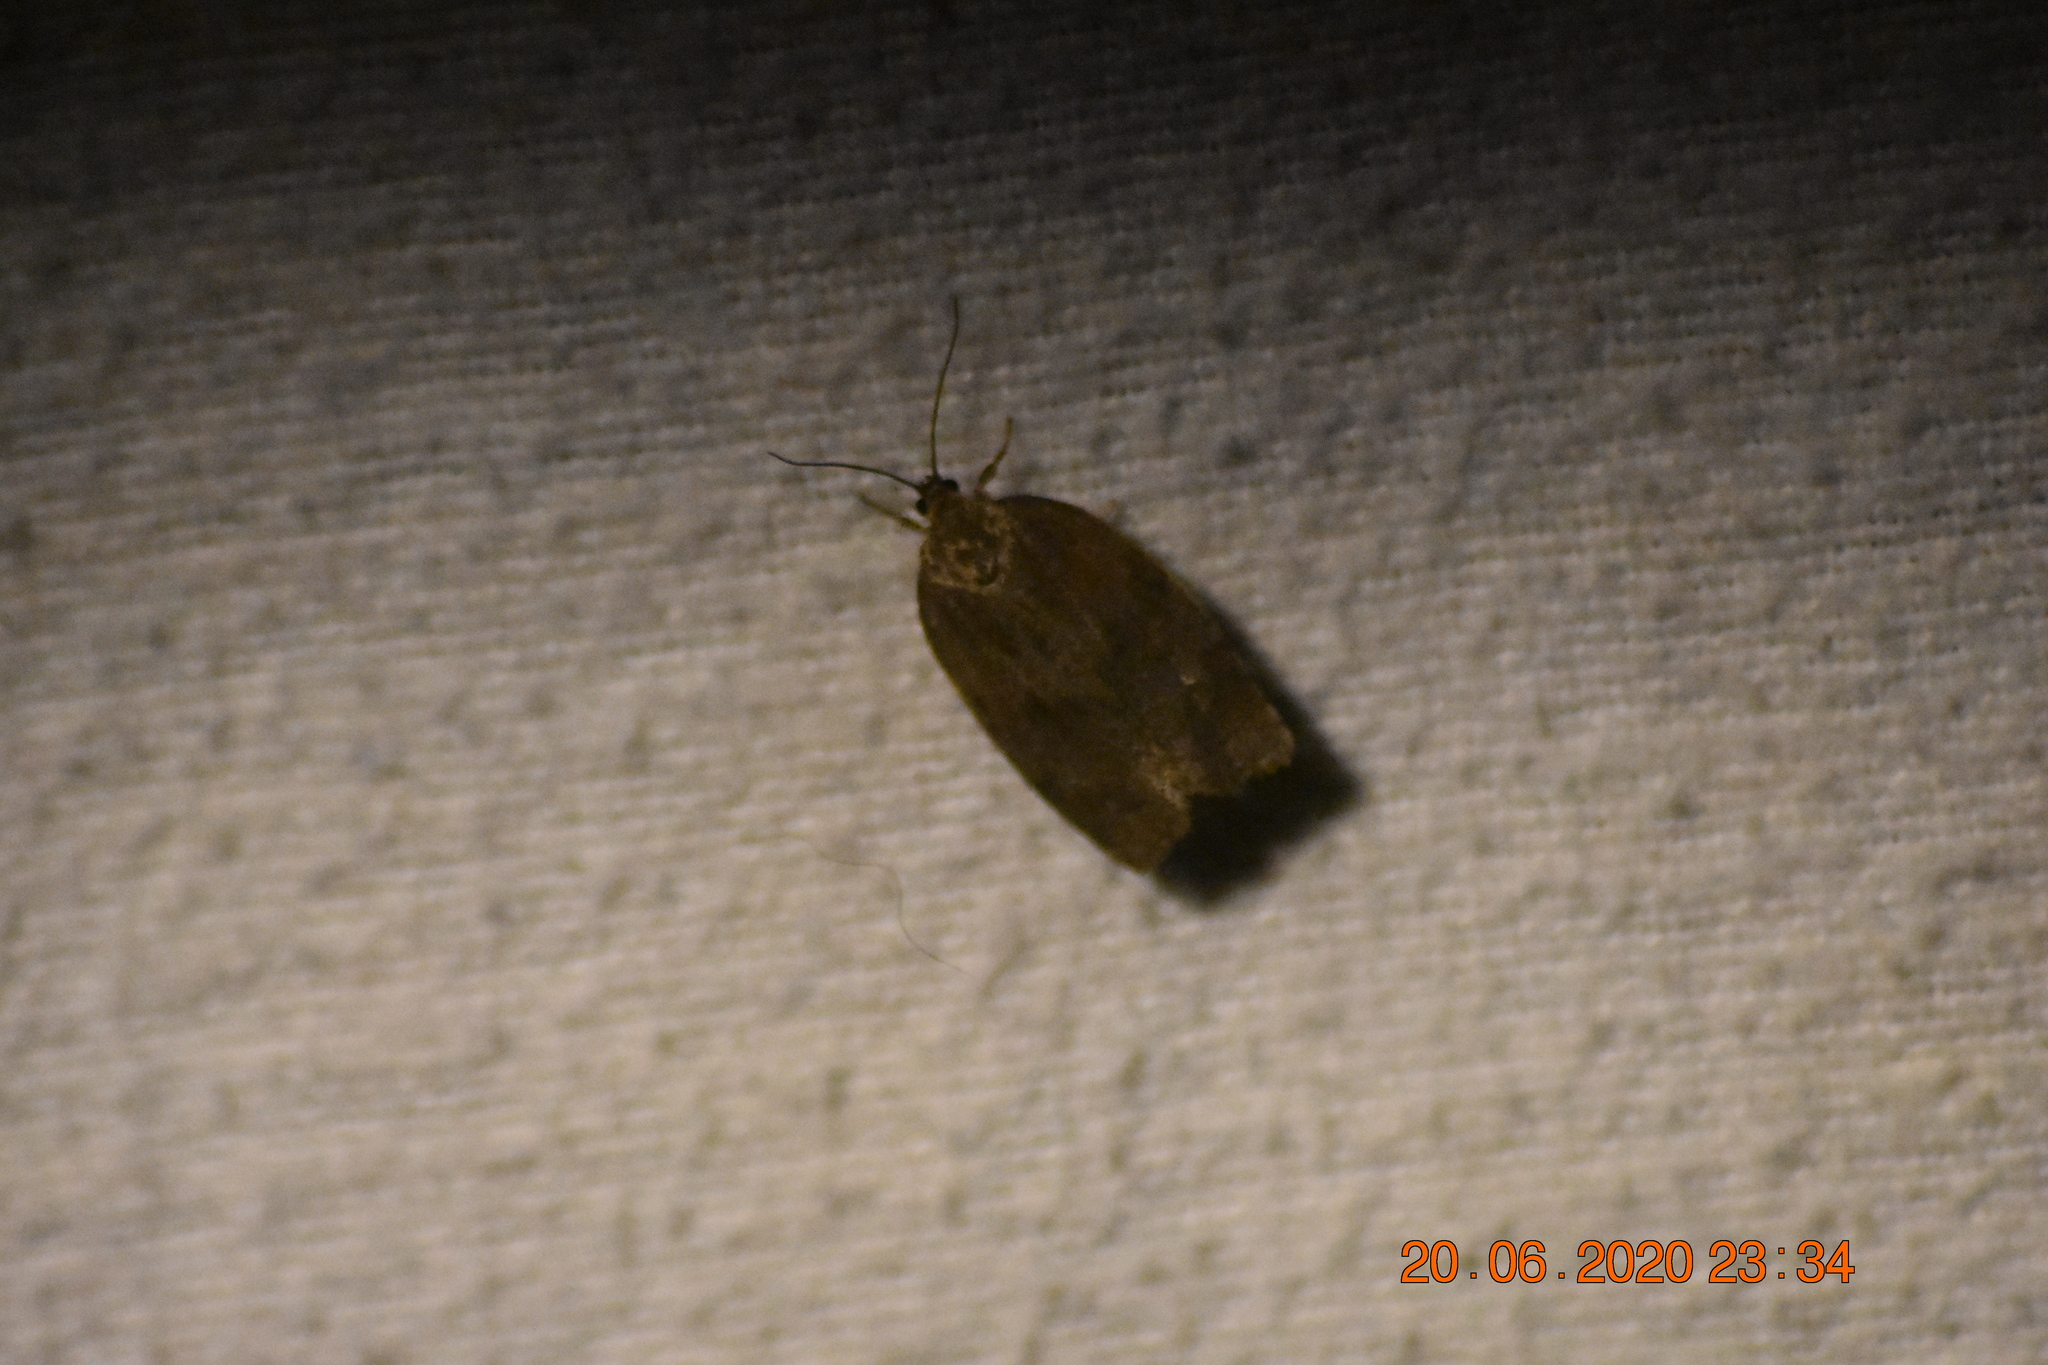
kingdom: Animalia
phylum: Arthropoda
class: Insecta
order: Lepidoptera
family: Tortricidae
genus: Choristoneura
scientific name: Choristoneura conflictana
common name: Large aspen tortrix
